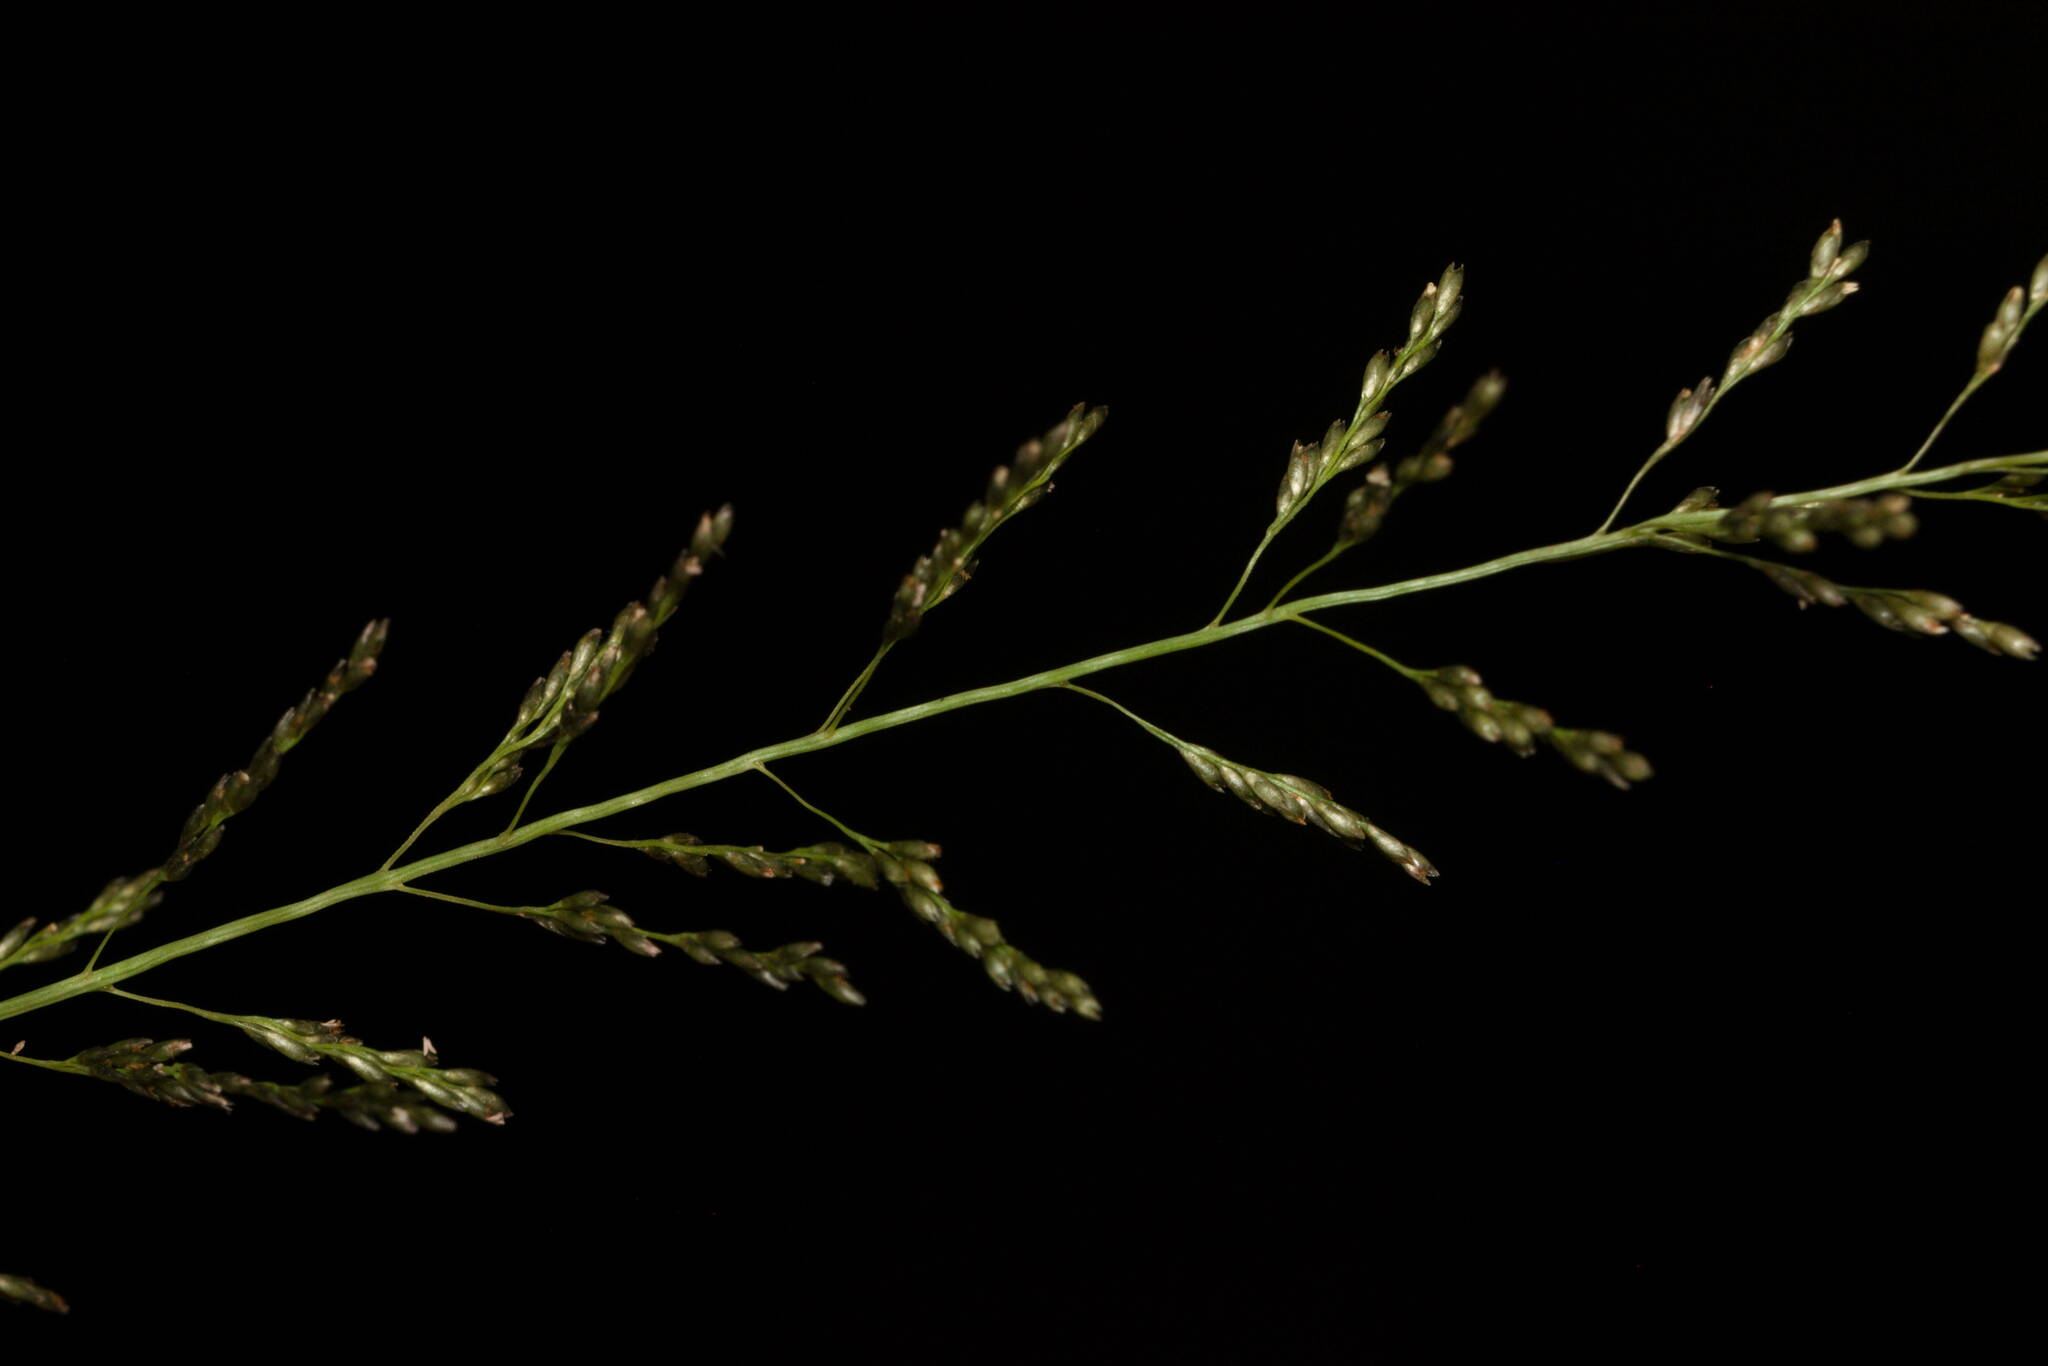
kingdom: Plantae
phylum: Tracheophyta
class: Liliopsida
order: Poales
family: Poaceae
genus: Sporobolus
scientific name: Sporobolus diandrus
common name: Tussock dropseed
